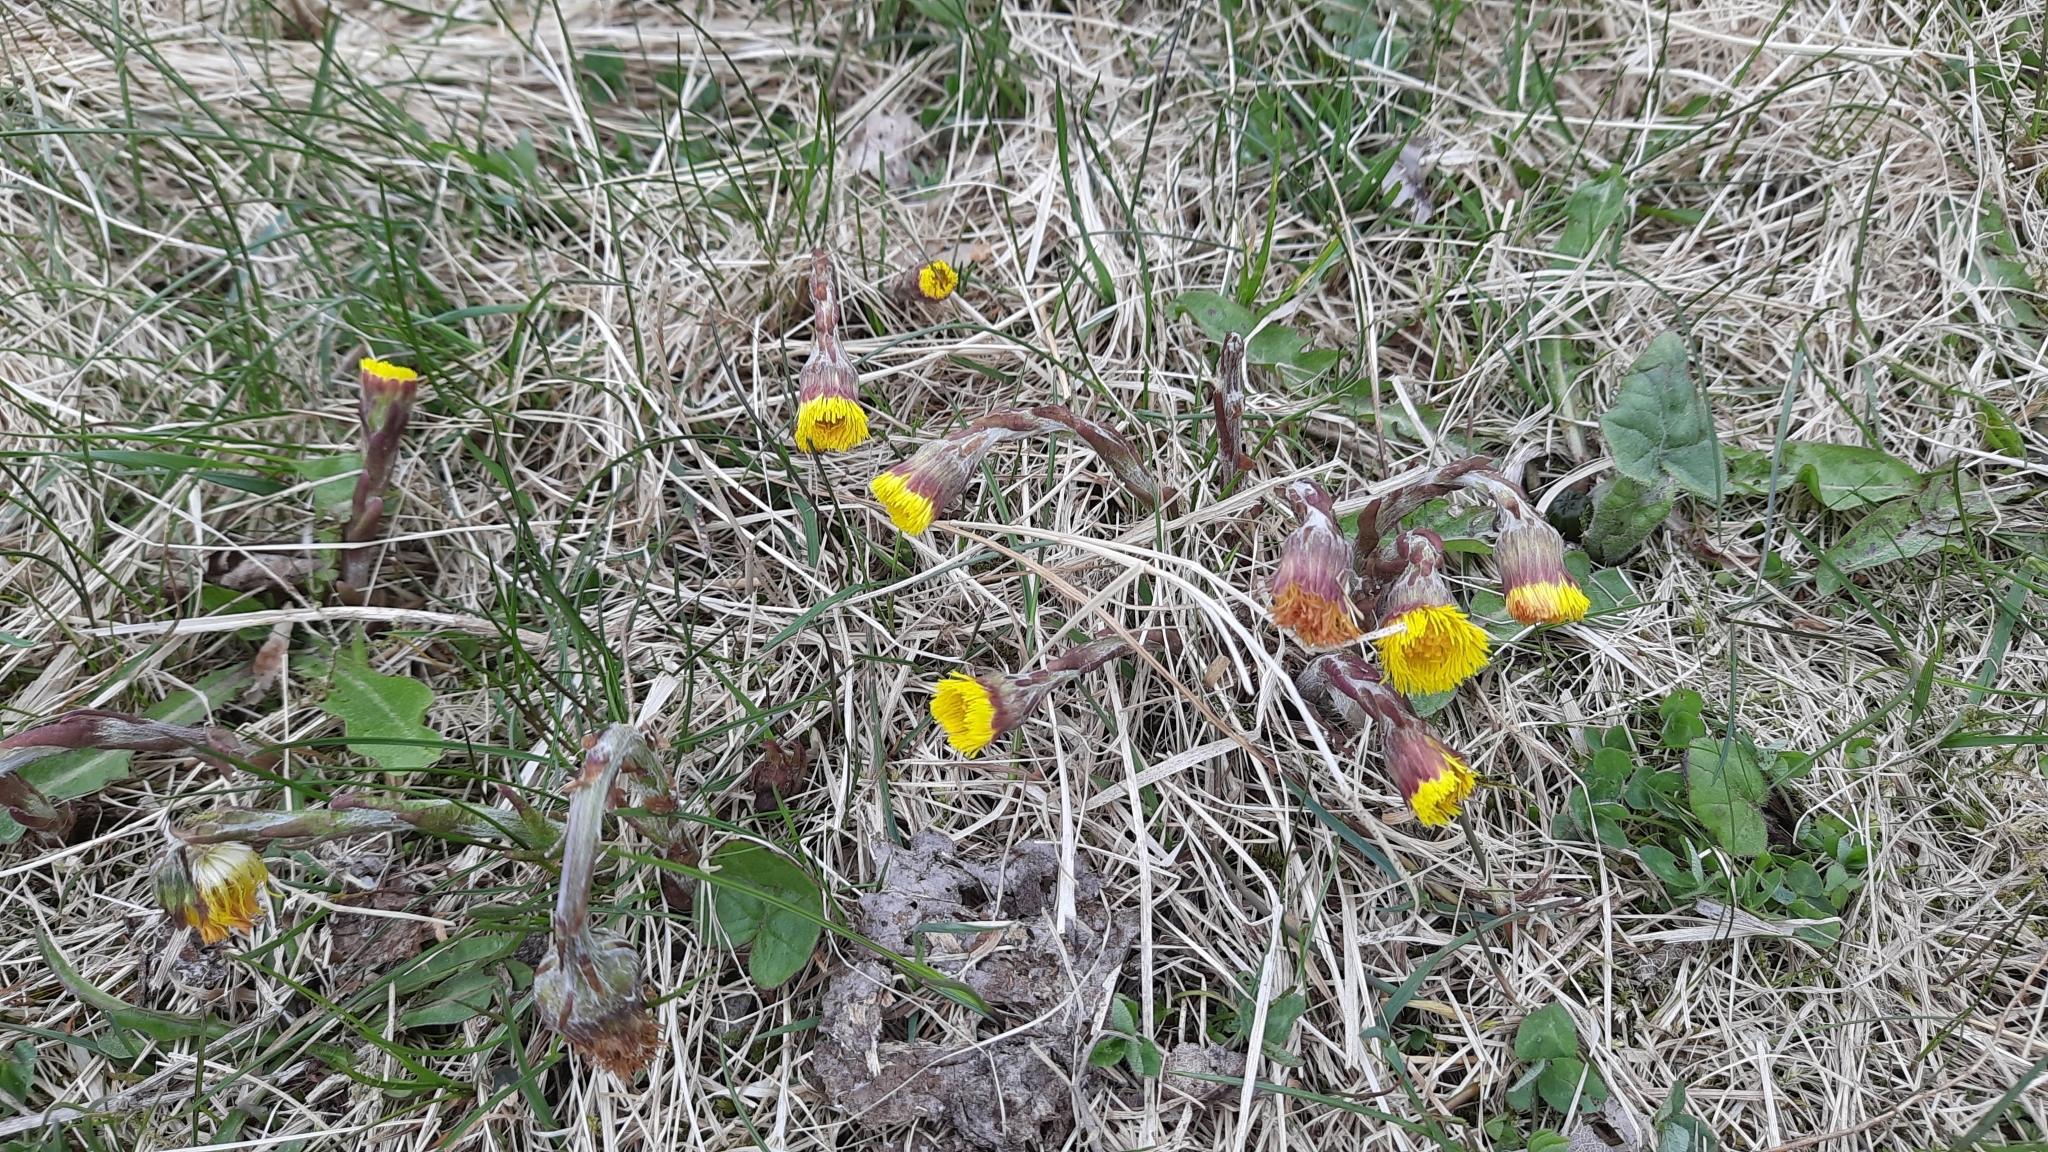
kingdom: Plantae
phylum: Tracheophyta
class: Magnoliopsida
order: Asterales
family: Asteraceae
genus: Tussilago
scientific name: Tussilago farfara
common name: Coltsfoot
